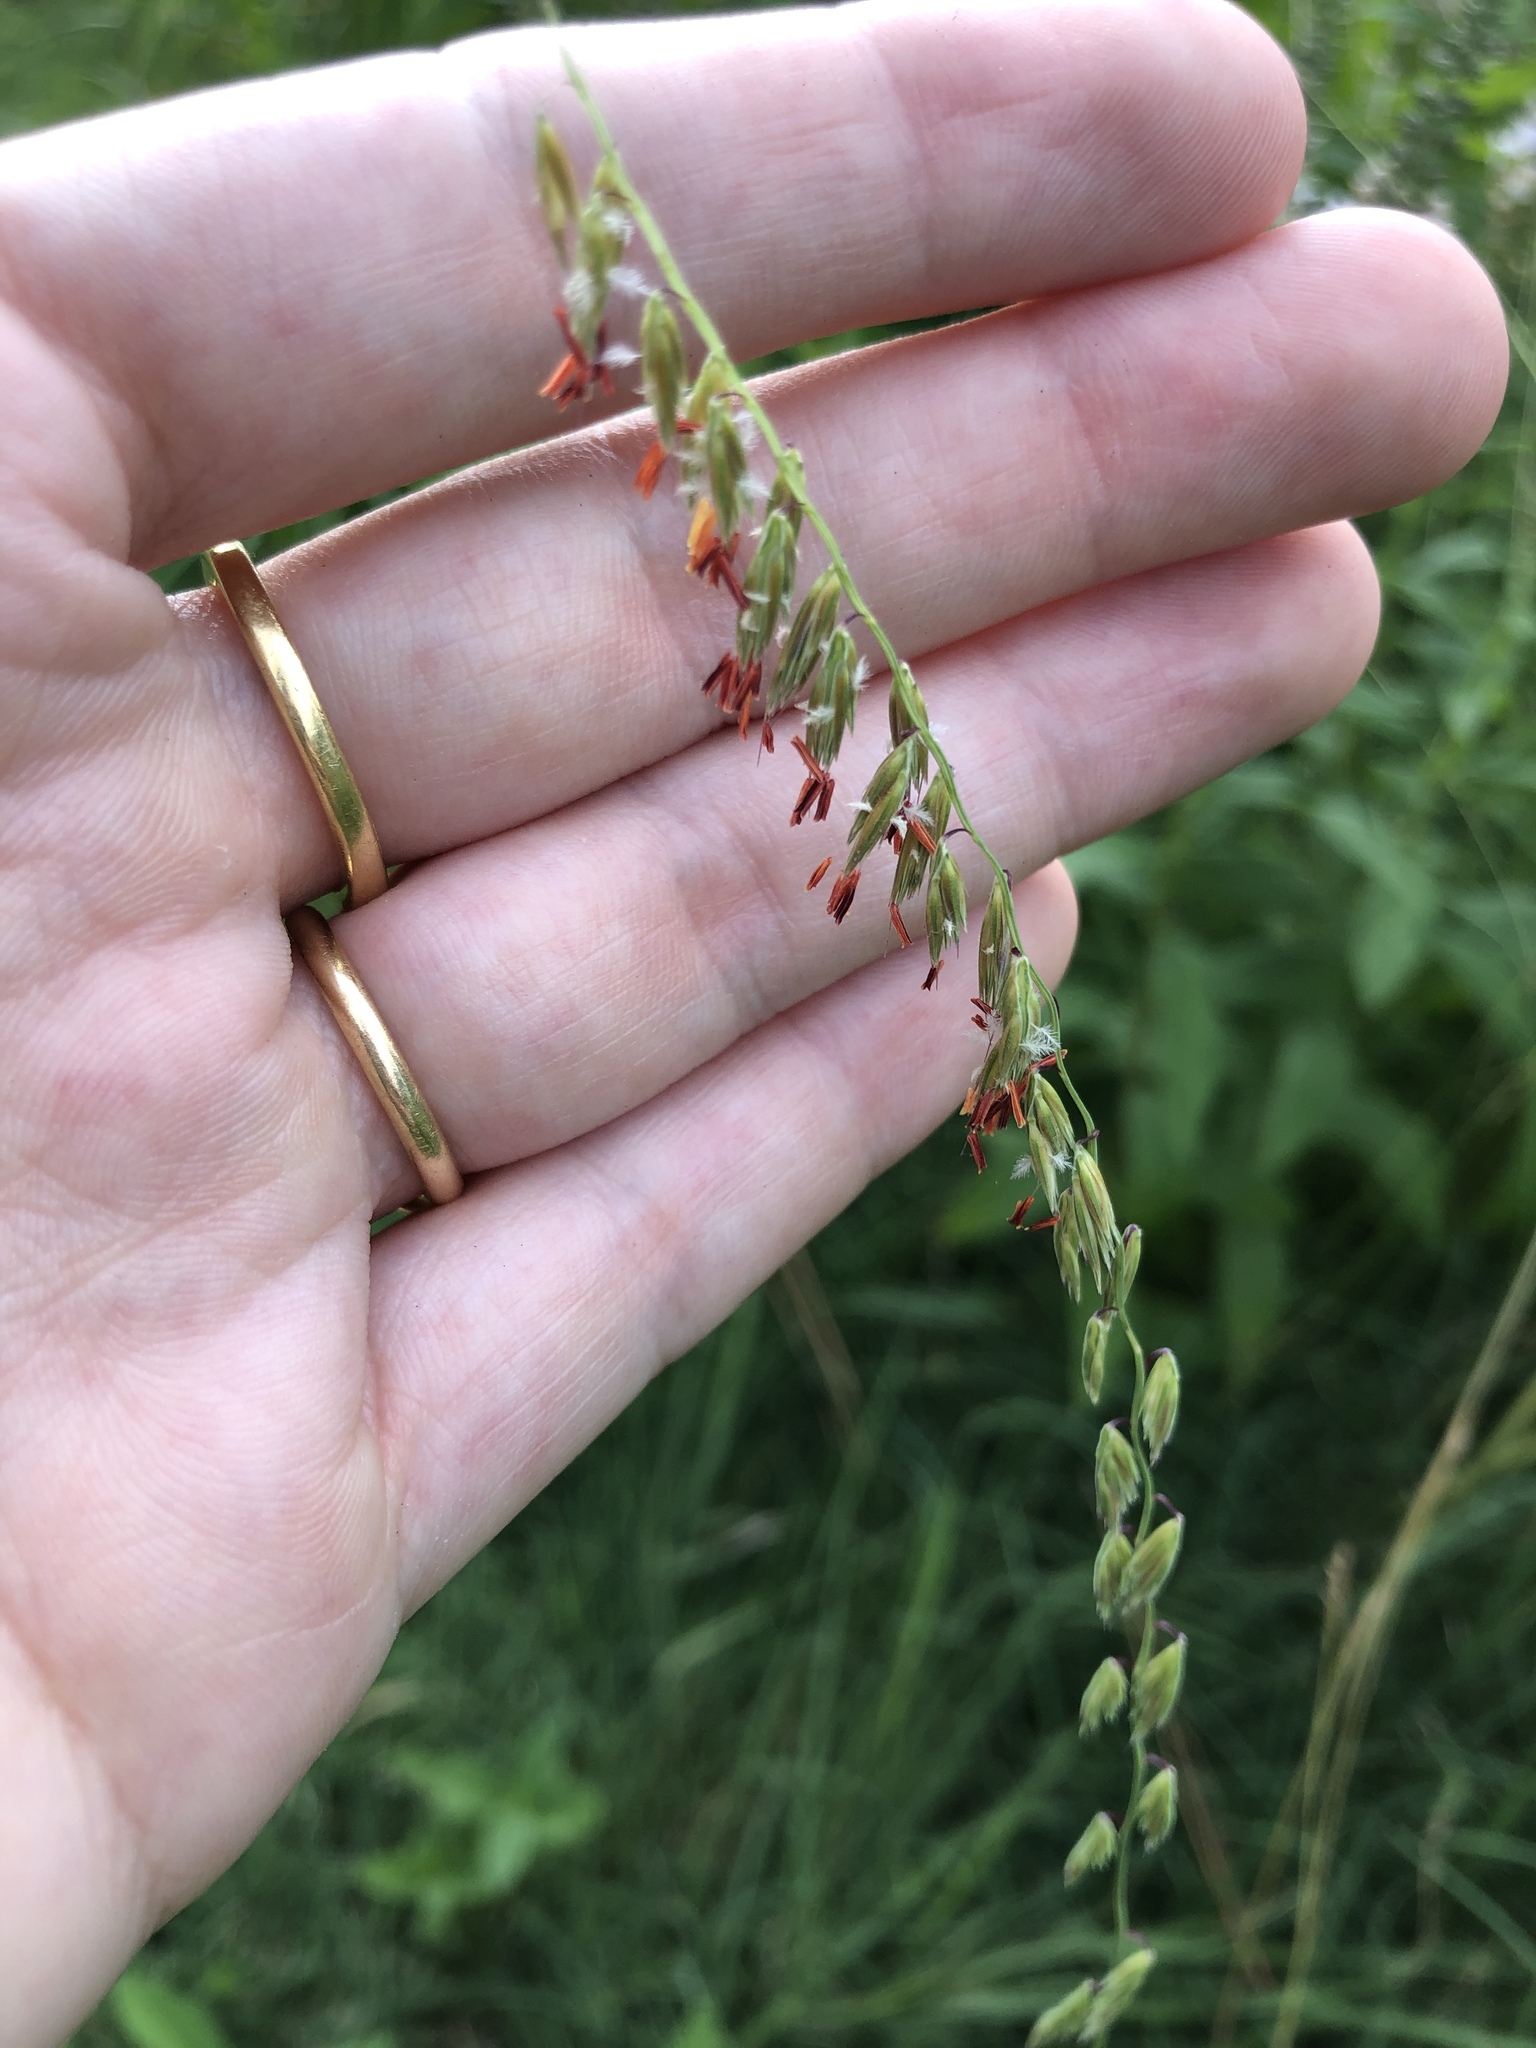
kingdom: Plantae
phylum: Tracheophyta
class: Liliopsida
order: Poales
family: Poaceae
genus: Bouteloua
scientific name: Bouteloua curtipendula
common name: Side-oats grama
